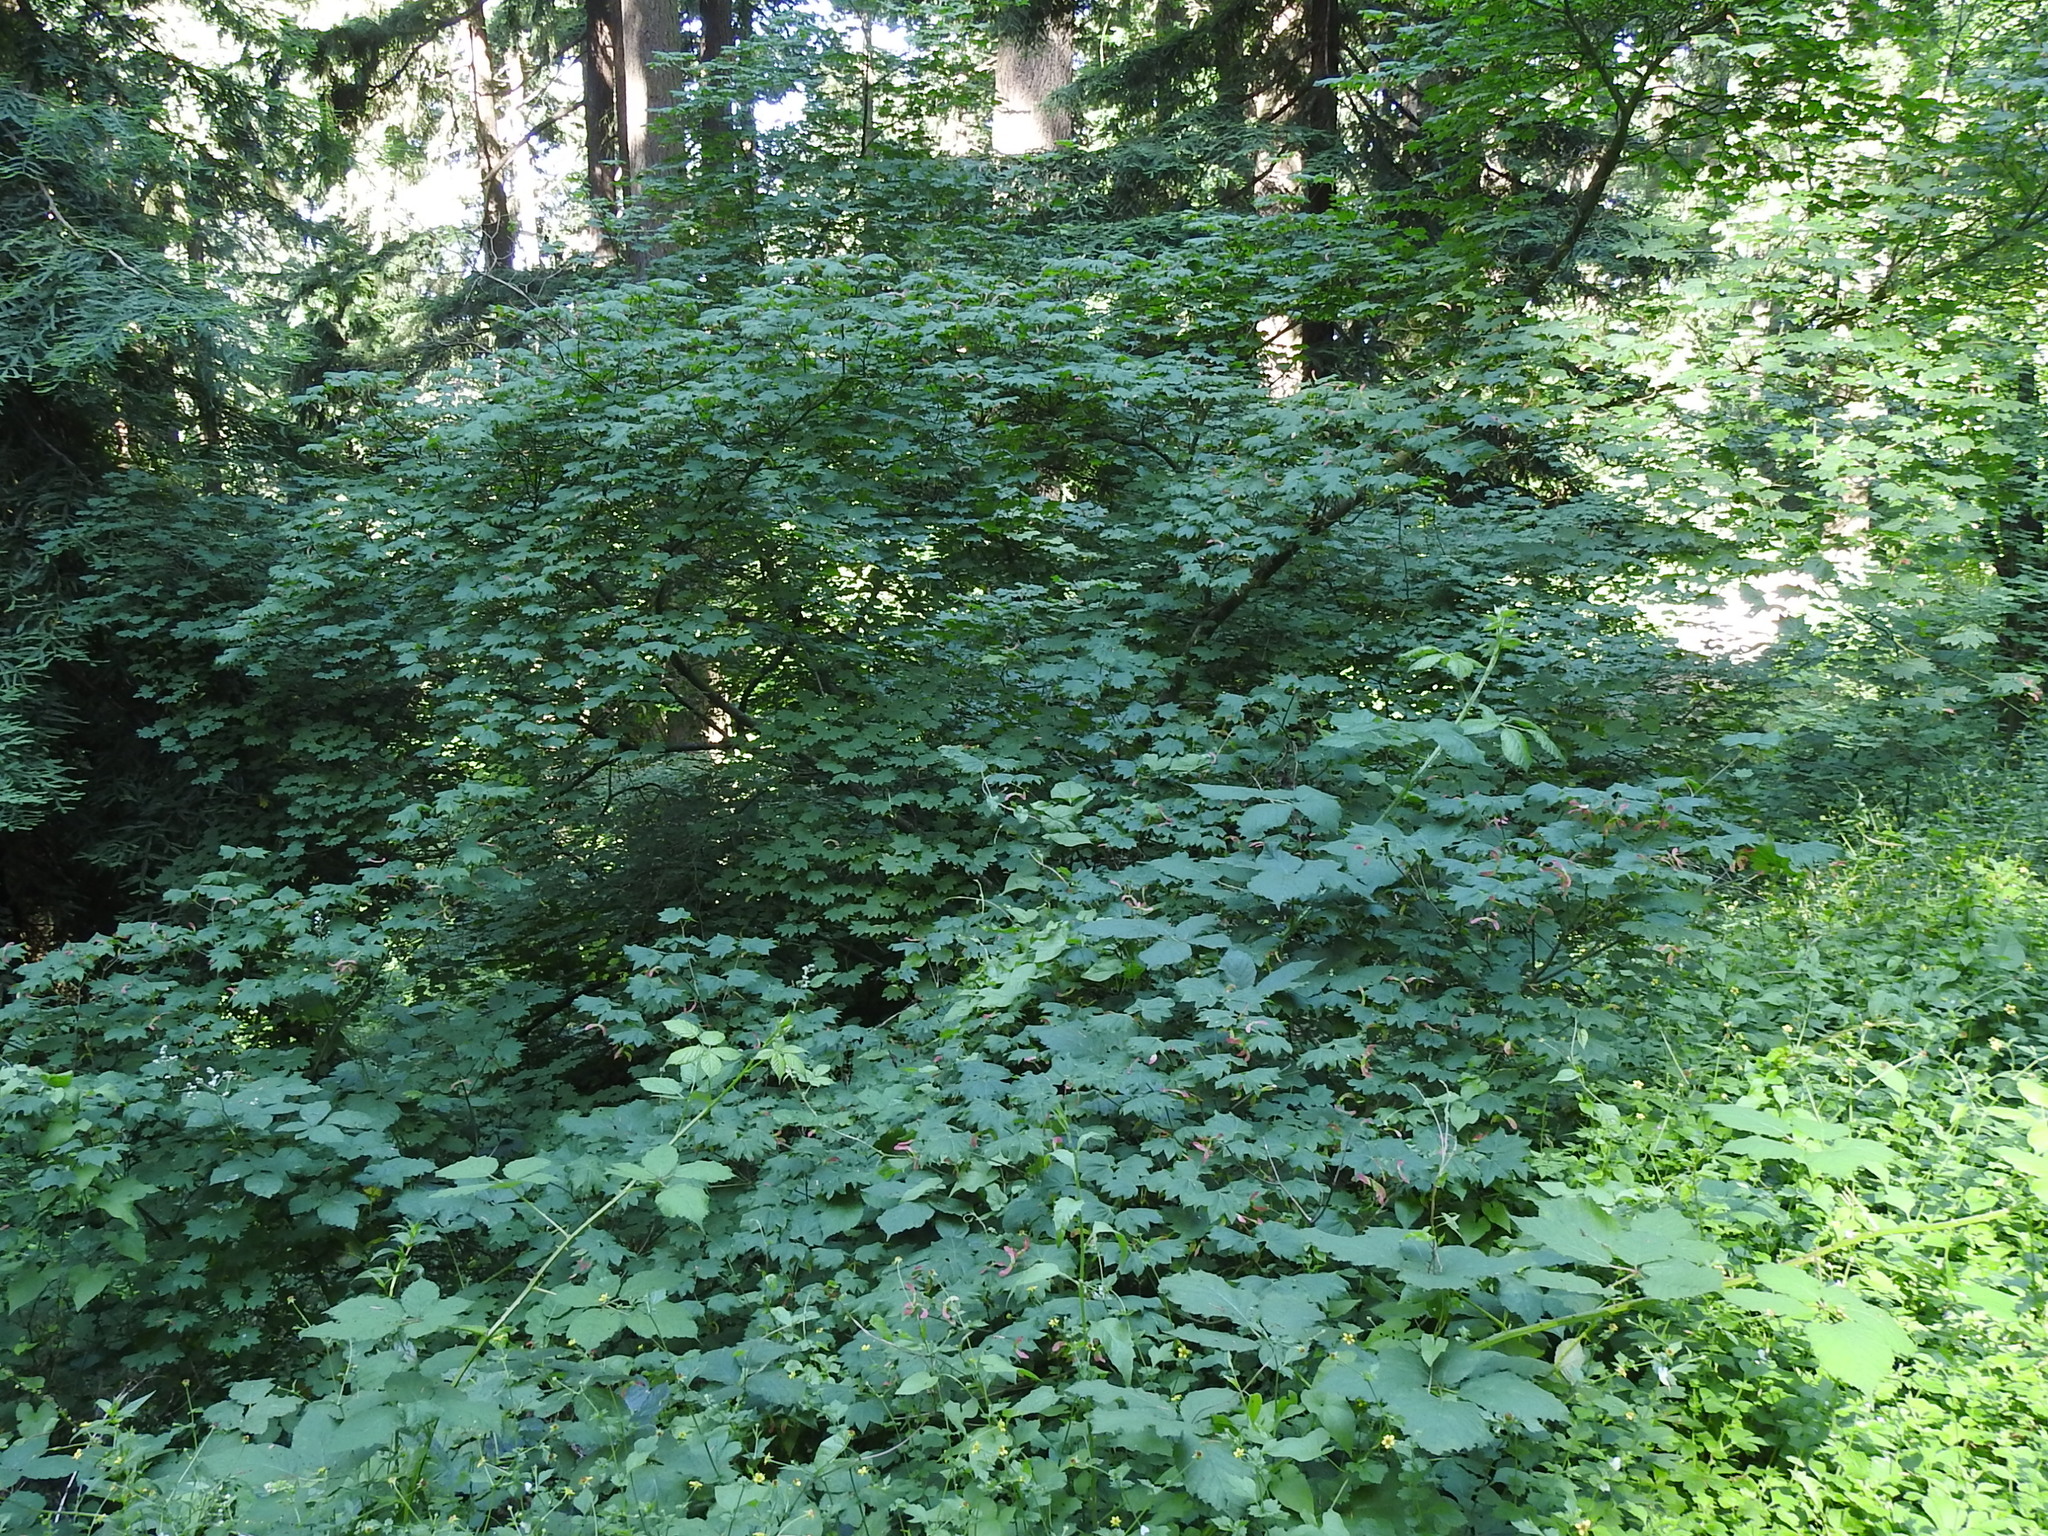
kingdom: Plantae
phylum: Tracheophyta
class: Magnoliopsida
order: Sapindales
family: Sapindaceae
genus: Acer
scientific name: Acer circinatum
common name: Vine maple
